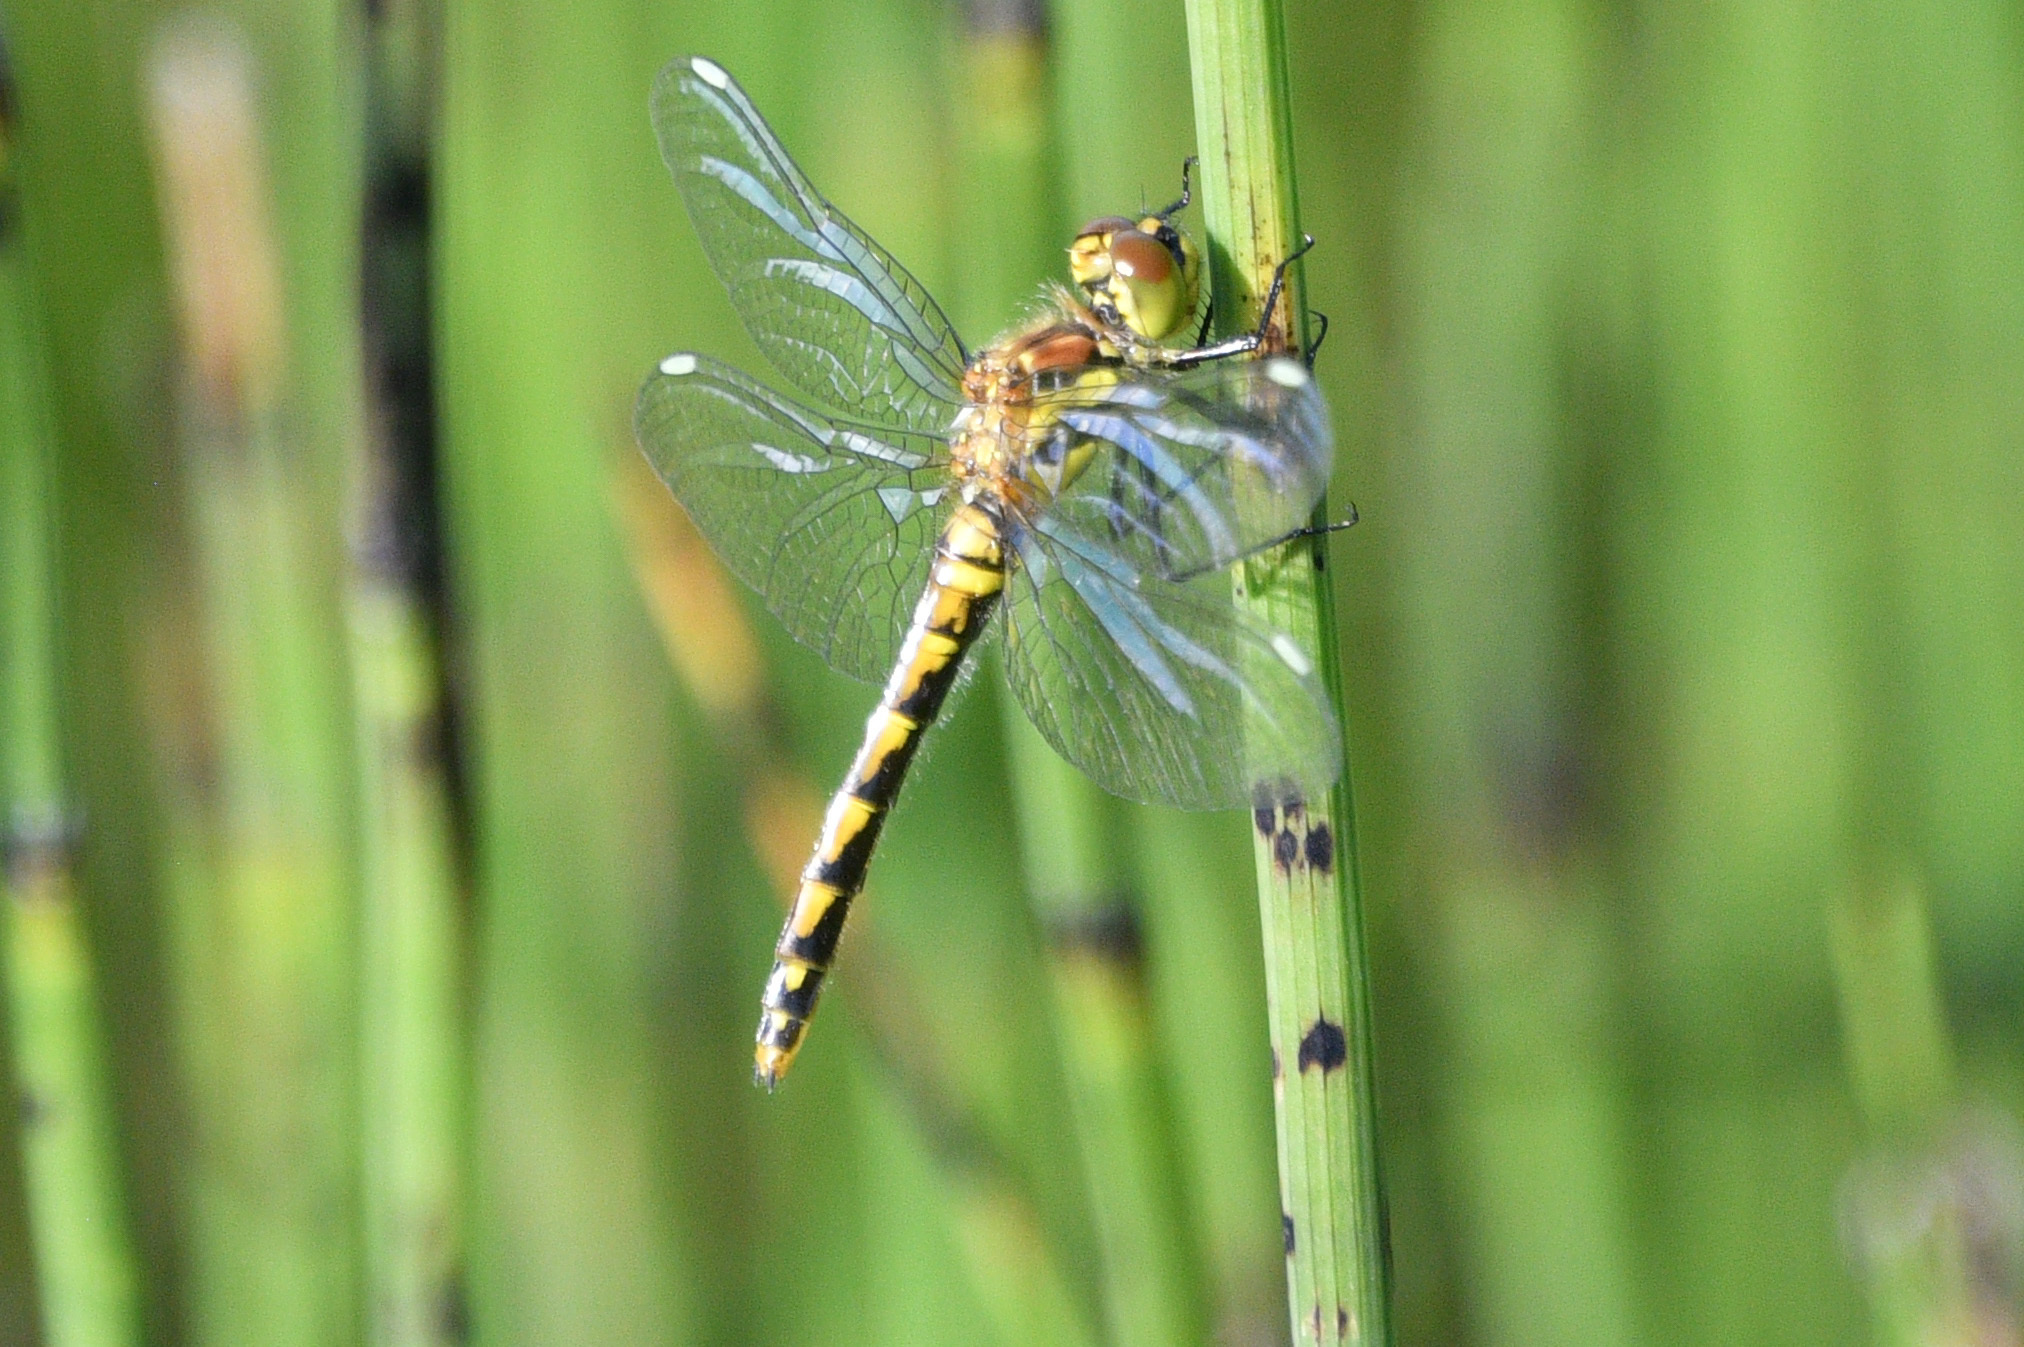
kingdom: Animalia
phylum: Arthropoda
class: Insecta
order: Odonata
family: Libellulidae
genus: Sympetrum
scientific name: Sympetrum danae
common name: Black darter
